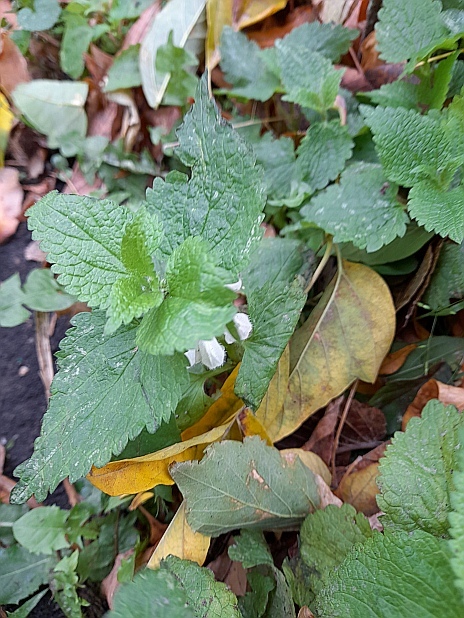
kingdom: Plantae
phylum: Tracheophyta
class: Magnoliopsida
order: Lamiales
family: Lamiaceae
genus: Lamium
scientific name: Lamium album
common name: White dead-nettle
